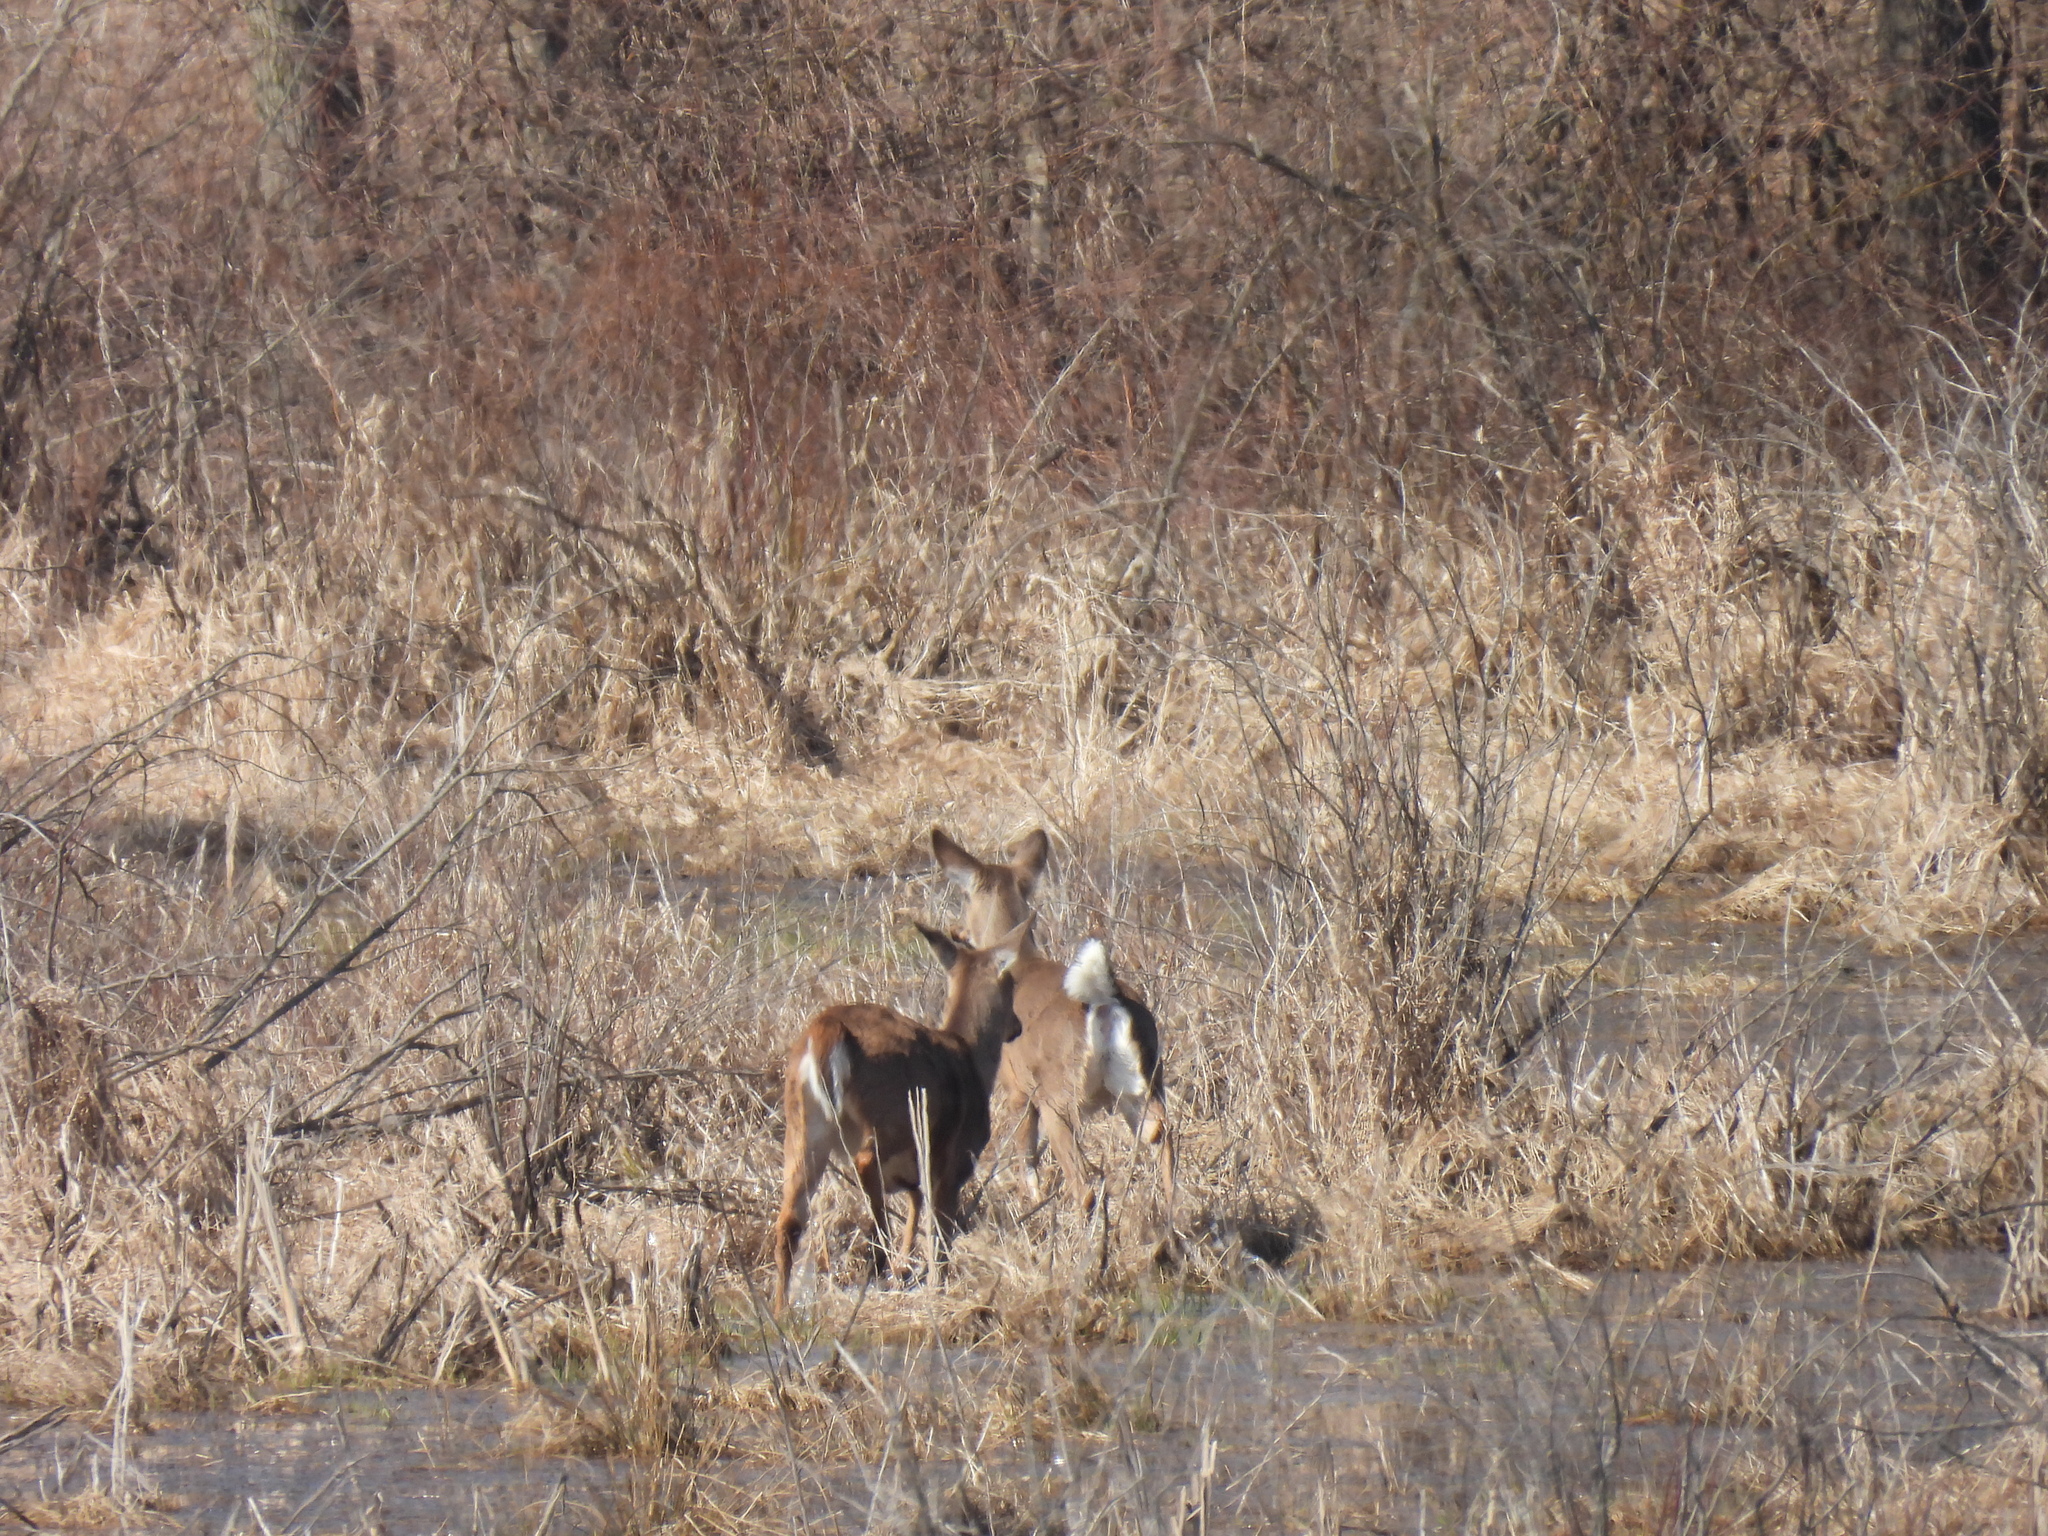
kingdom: Animalia
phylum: Chordata
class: Mammalia
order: Artiodactyla
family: Cervidae
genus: Odocoileus
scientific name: Odocoileus virginianus
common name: White-tailed deer
